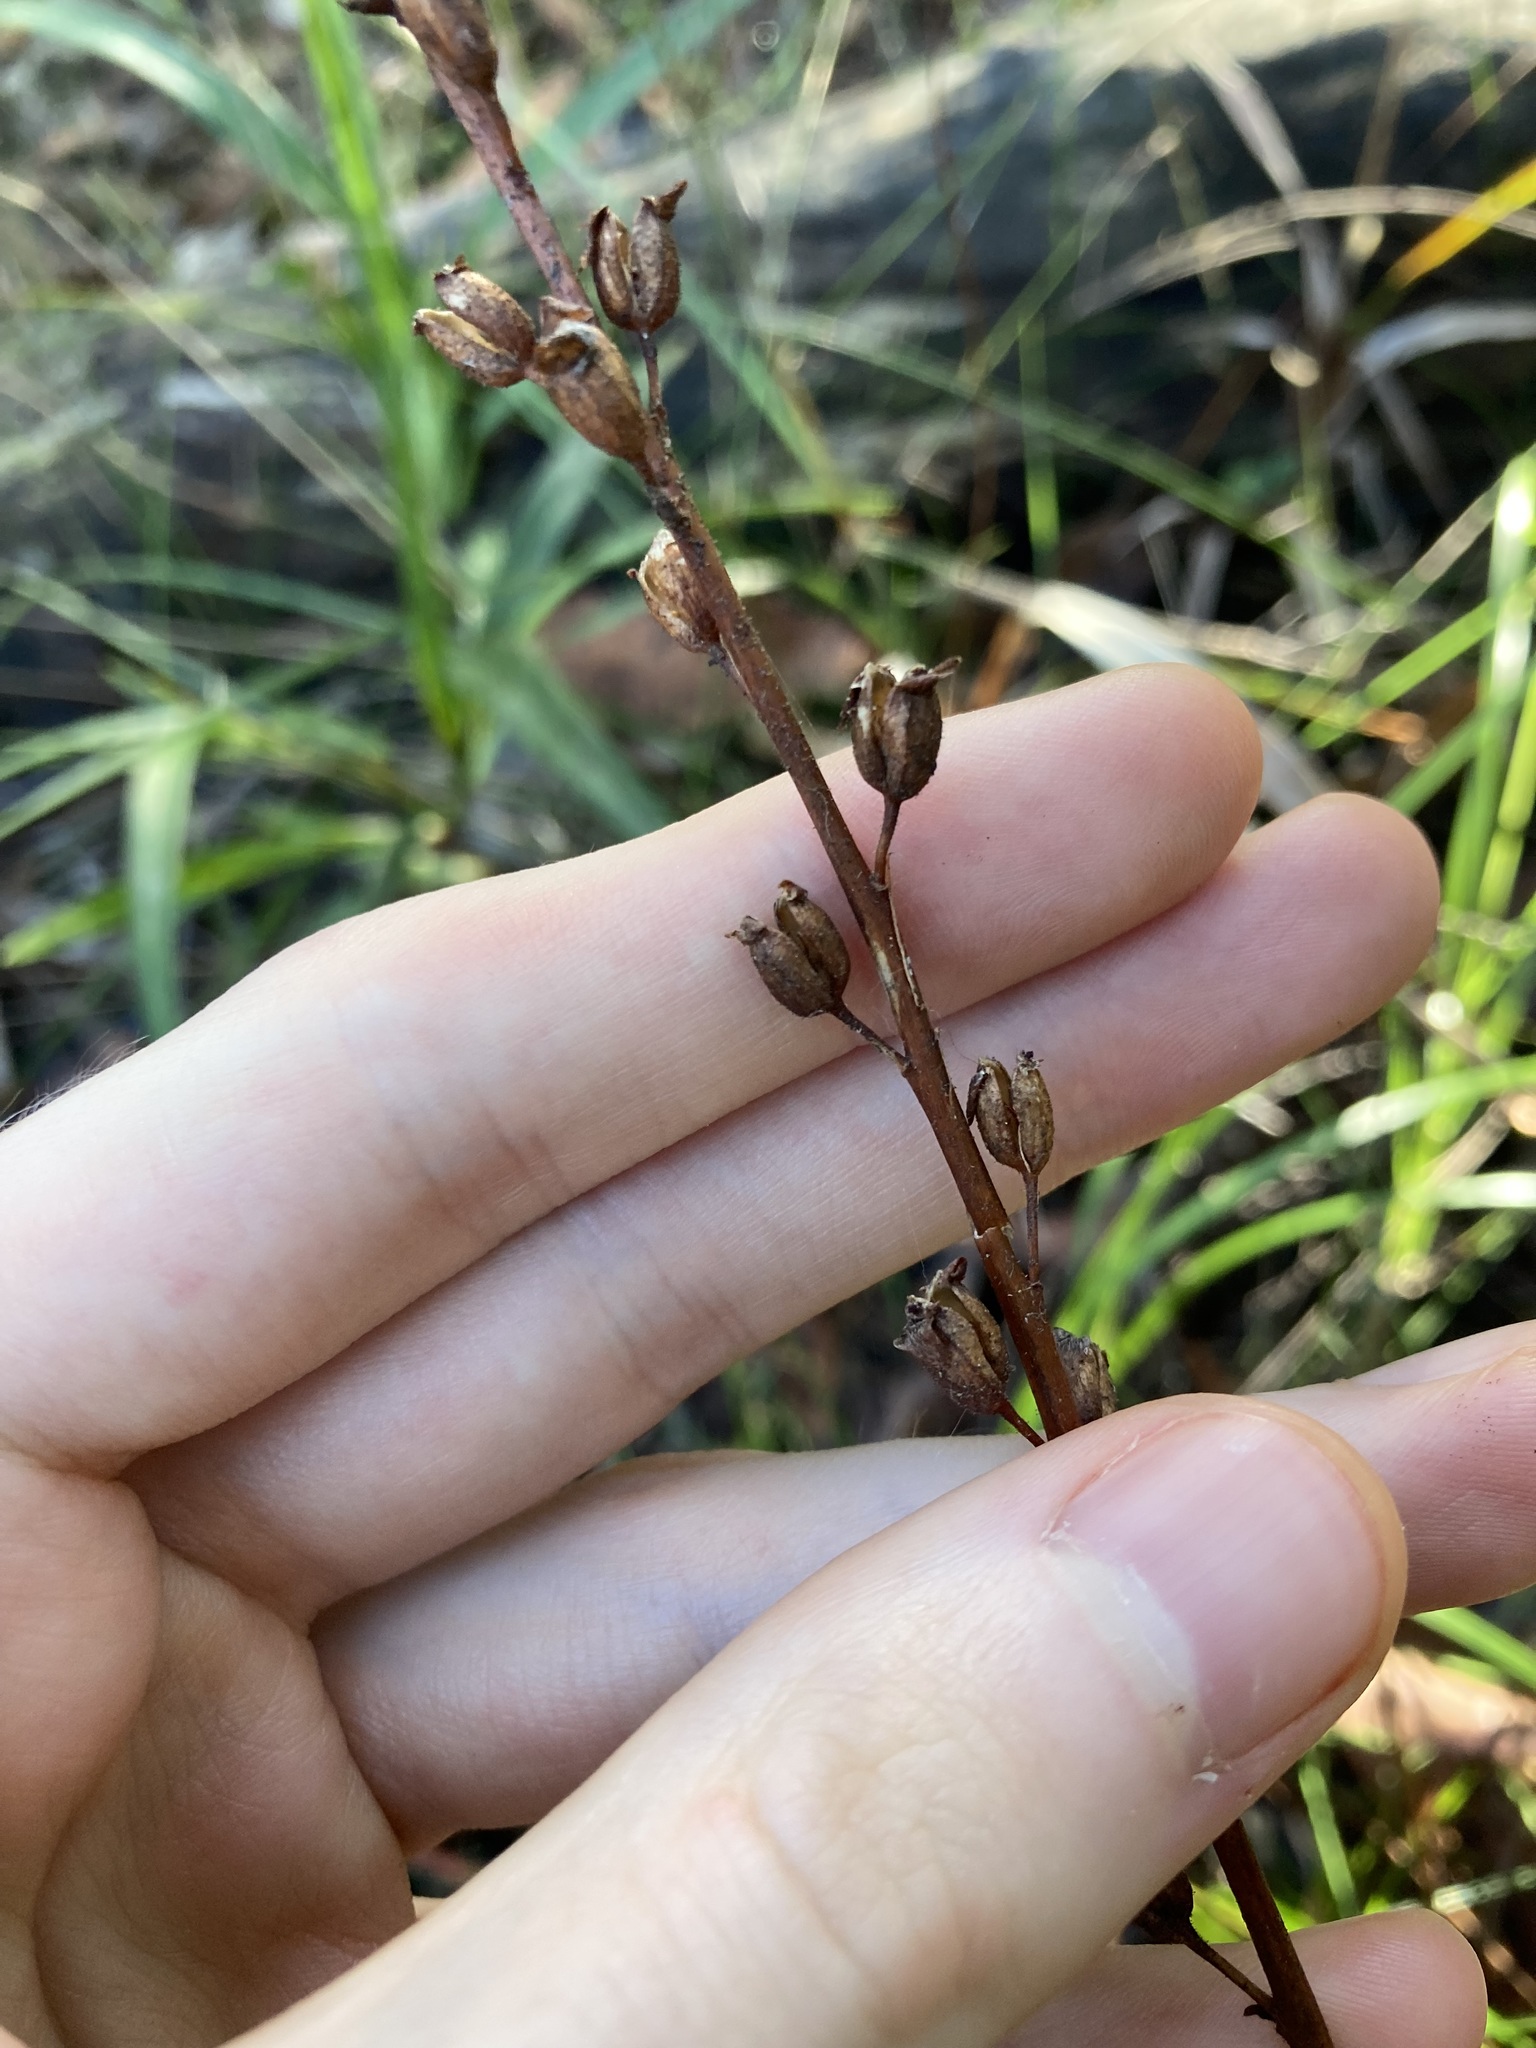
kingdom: Plantae
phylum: Tracheophyta
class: Magnoliopsida
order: Asterales
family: Stylidiaceae
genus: Stylidium
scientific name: Stylidium graminifolium
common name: Grass triggerplant
